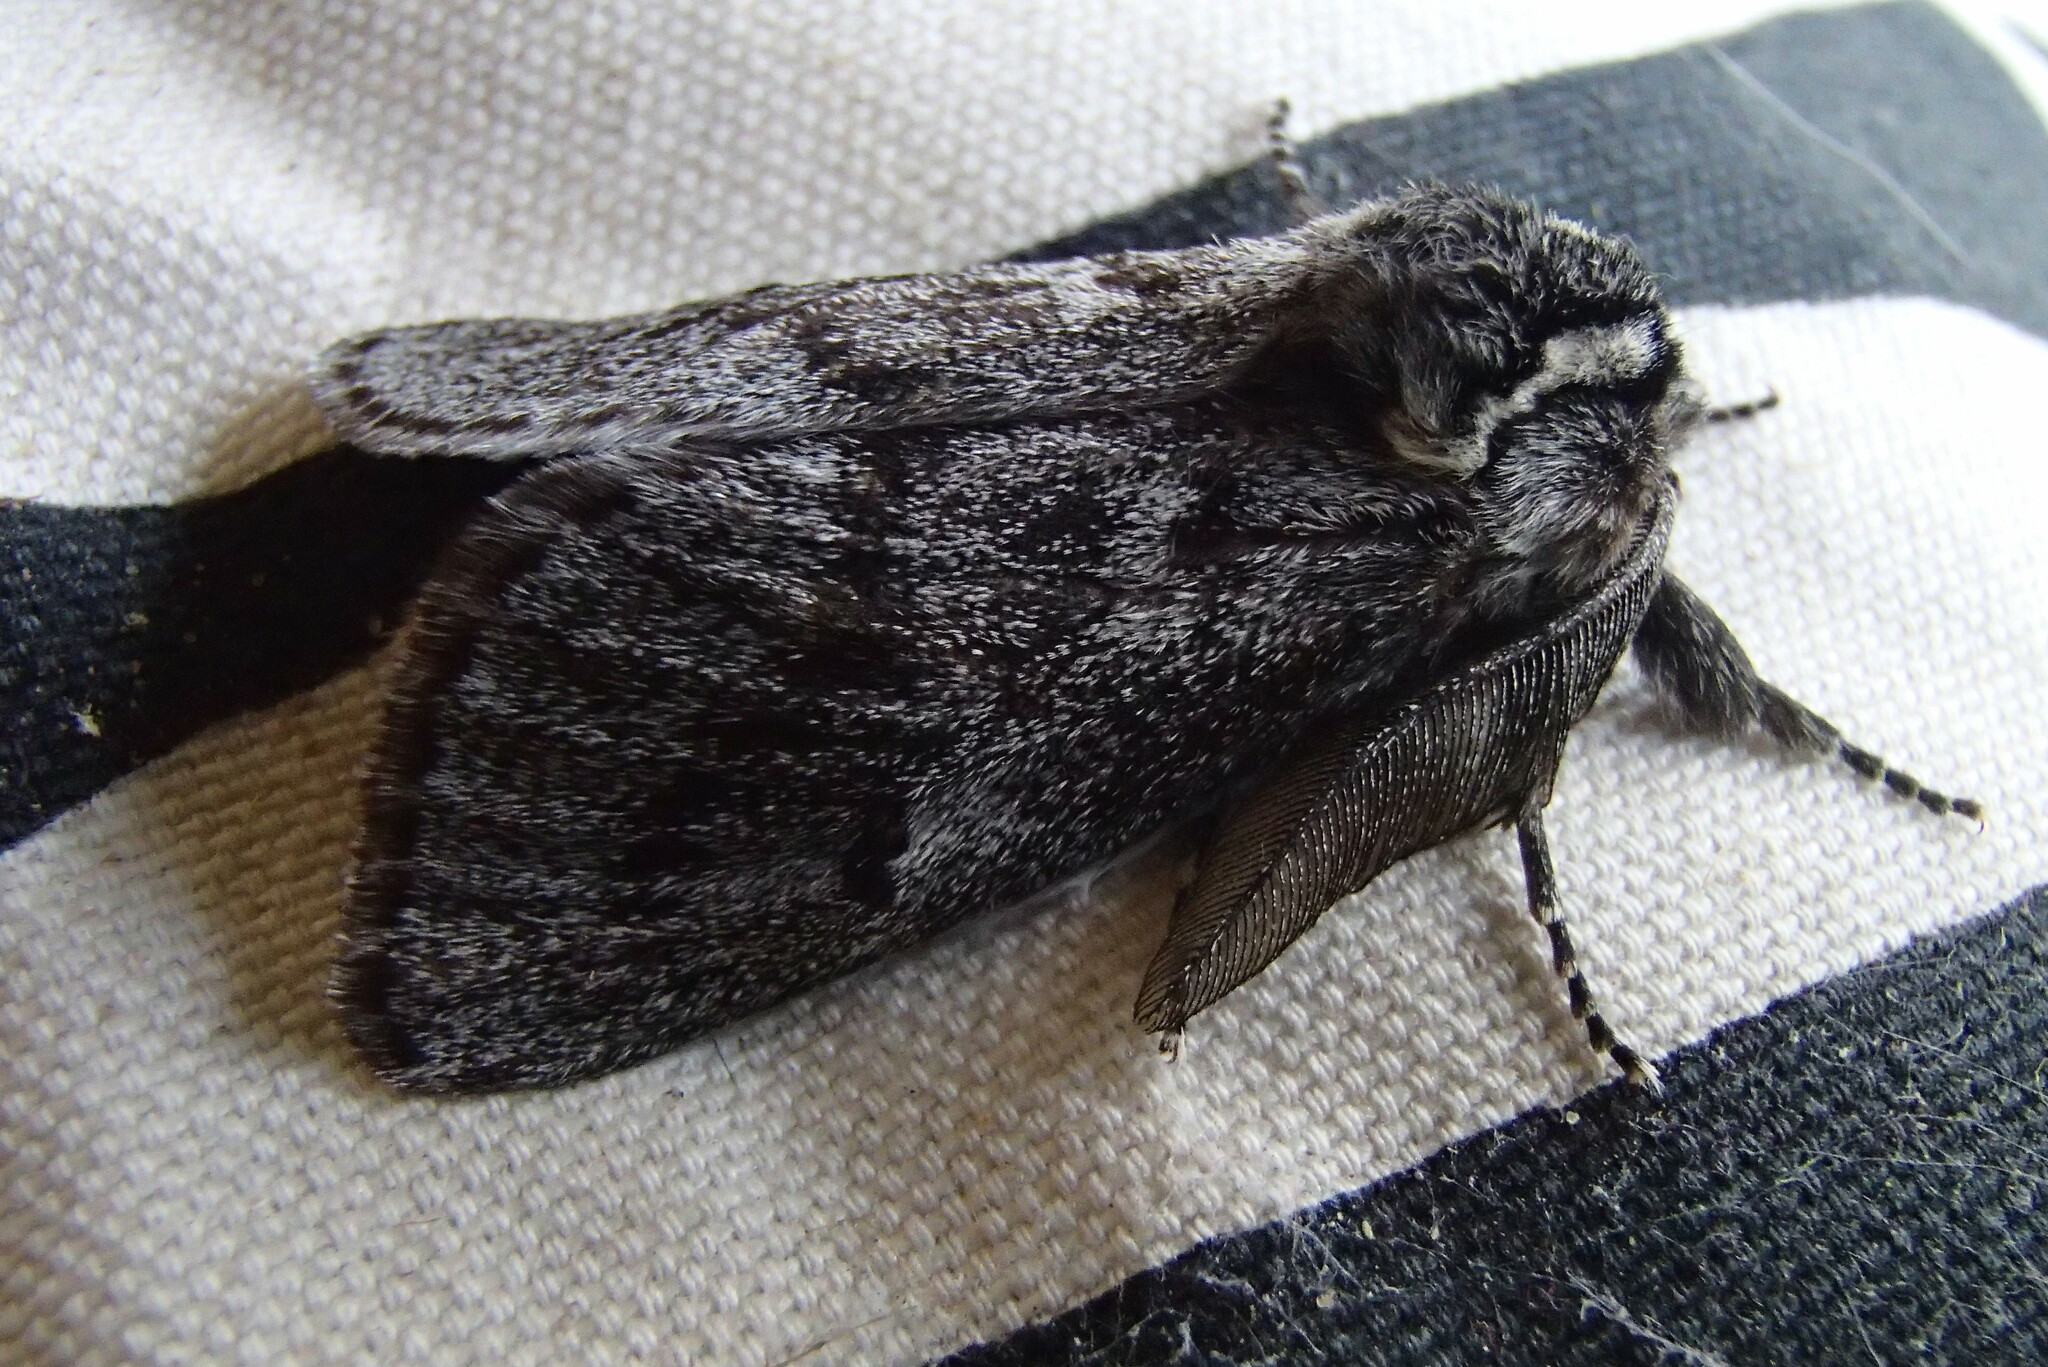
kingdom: Animalia
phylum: Arthropoda
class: Insecta
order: Lepidoptera
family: Cossidae
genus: Ptilomacra
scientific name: Ptilomacra senex
